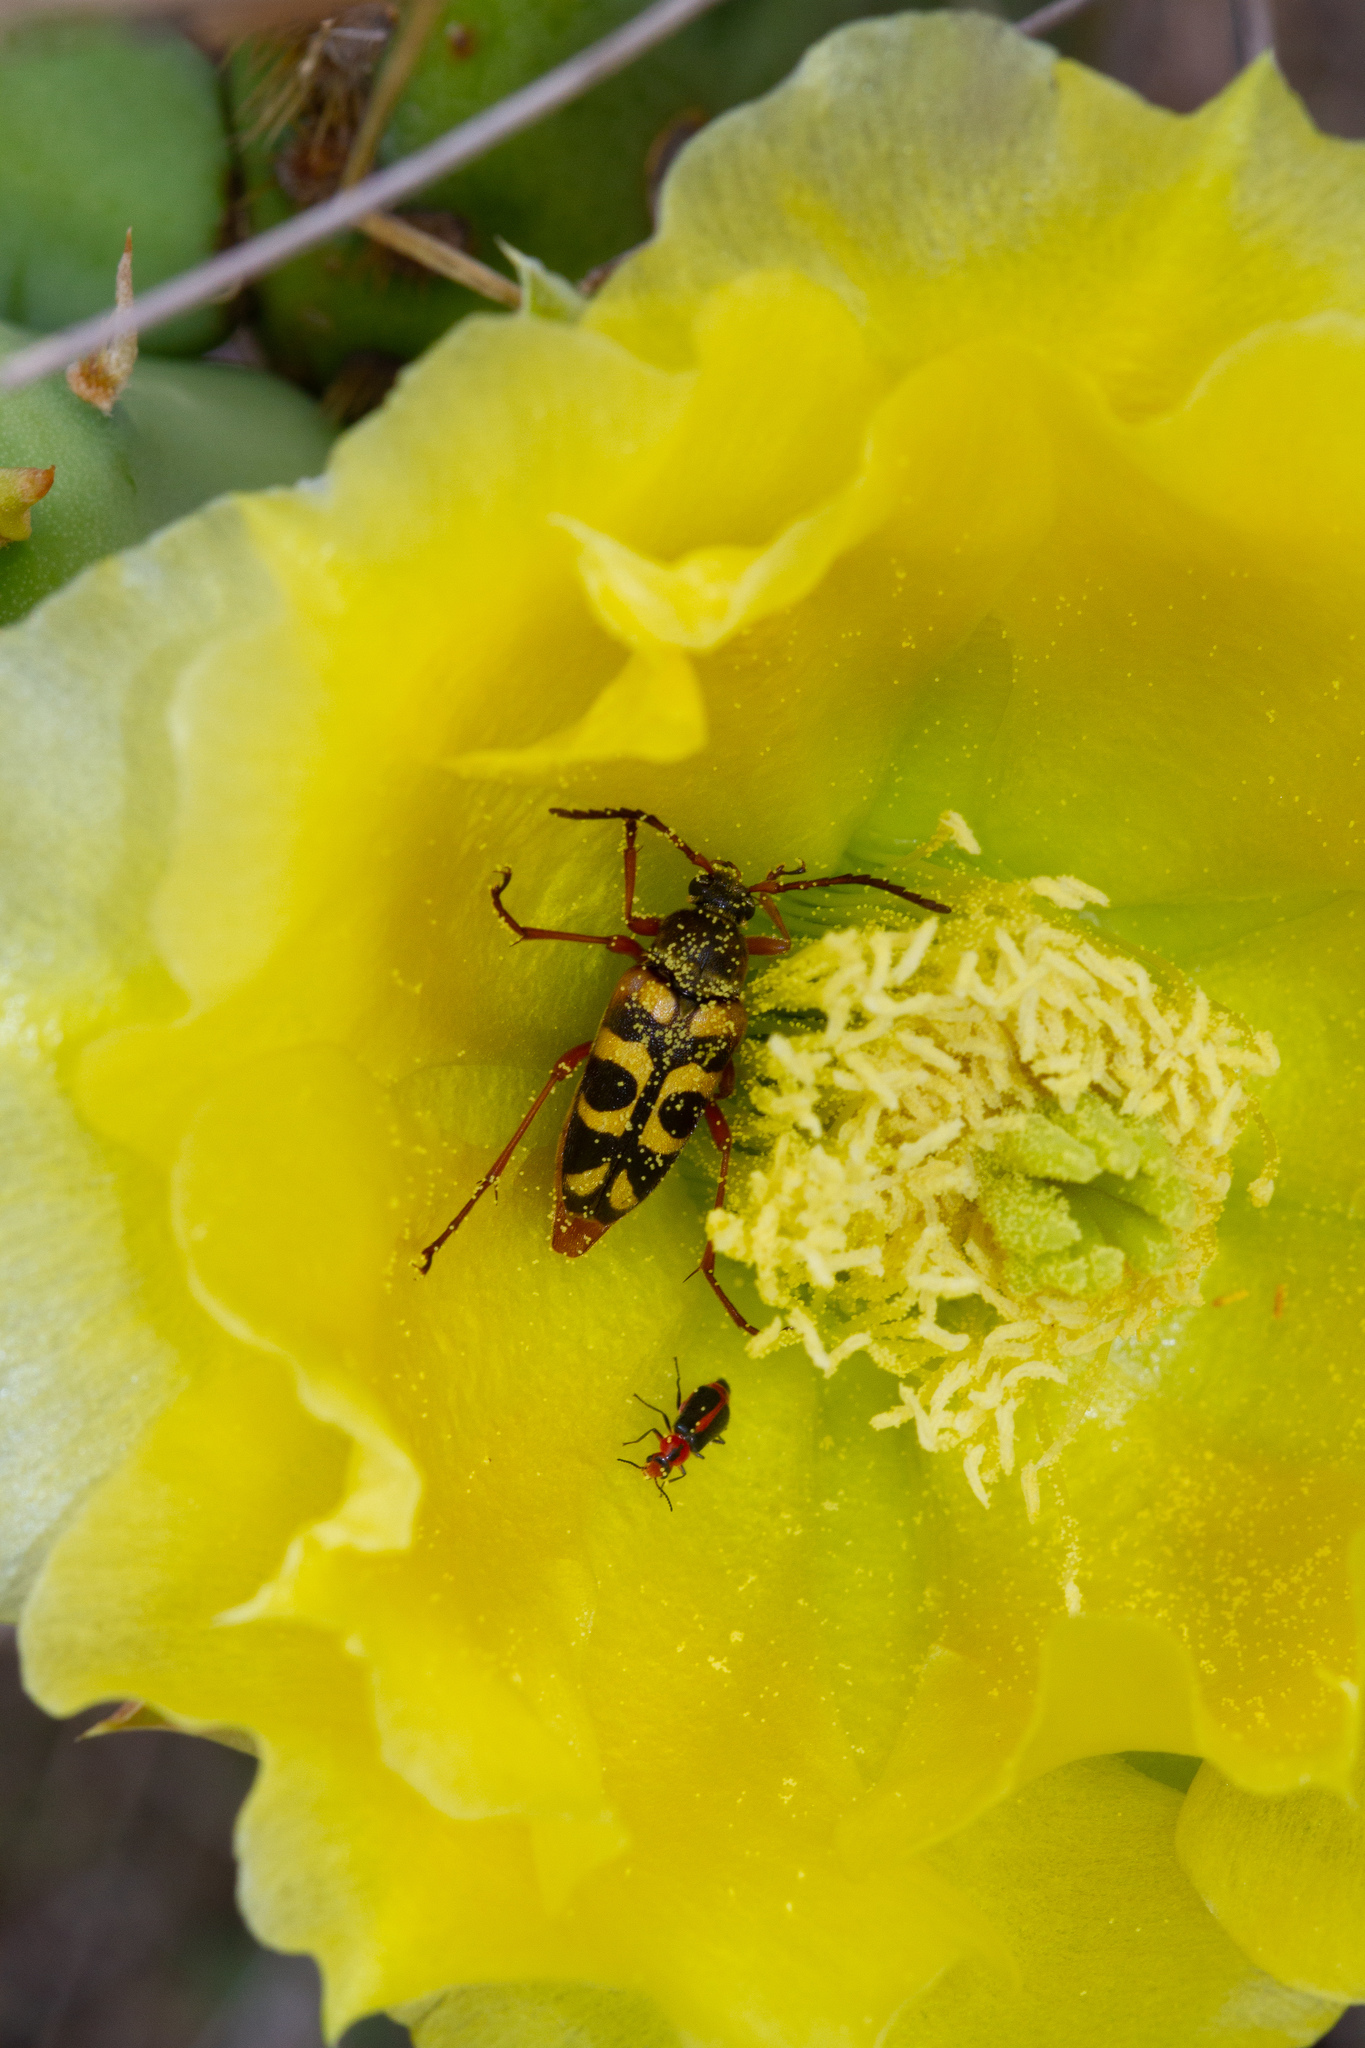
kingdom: Animalia
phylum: Arthropoda
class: Insecta
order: Coleoptera
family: Cerambycidae
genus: Typocerus
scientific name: Typocerus sinuatus
